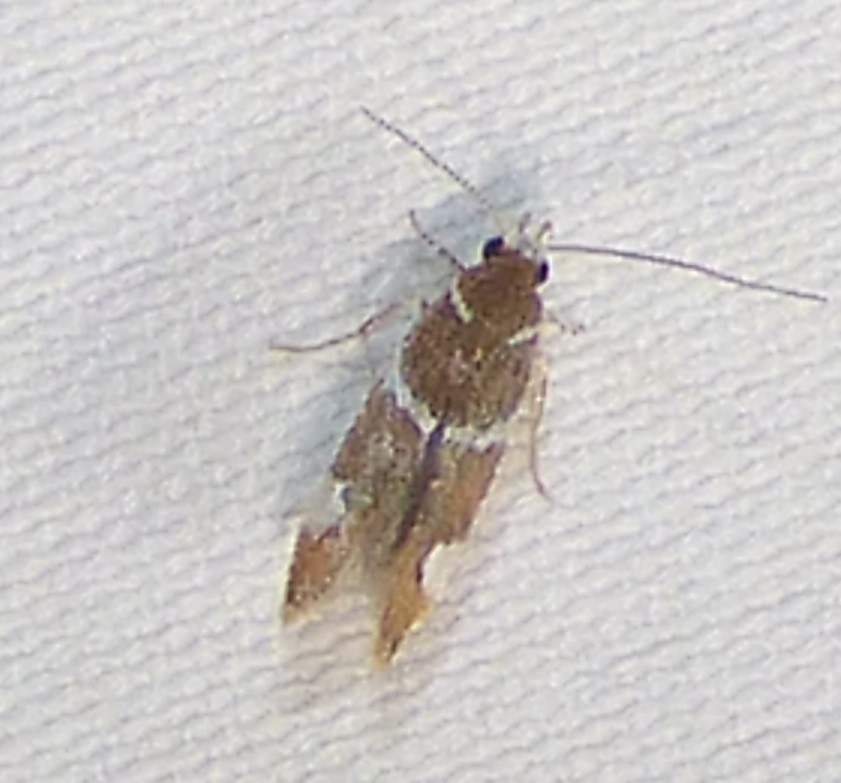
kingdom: Animalia
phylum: Arthropoda
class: Insecta
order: Lepidoptera
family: Oecophoridae
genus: Promalactis
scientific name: Promalactis suzukiella
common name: Moth
